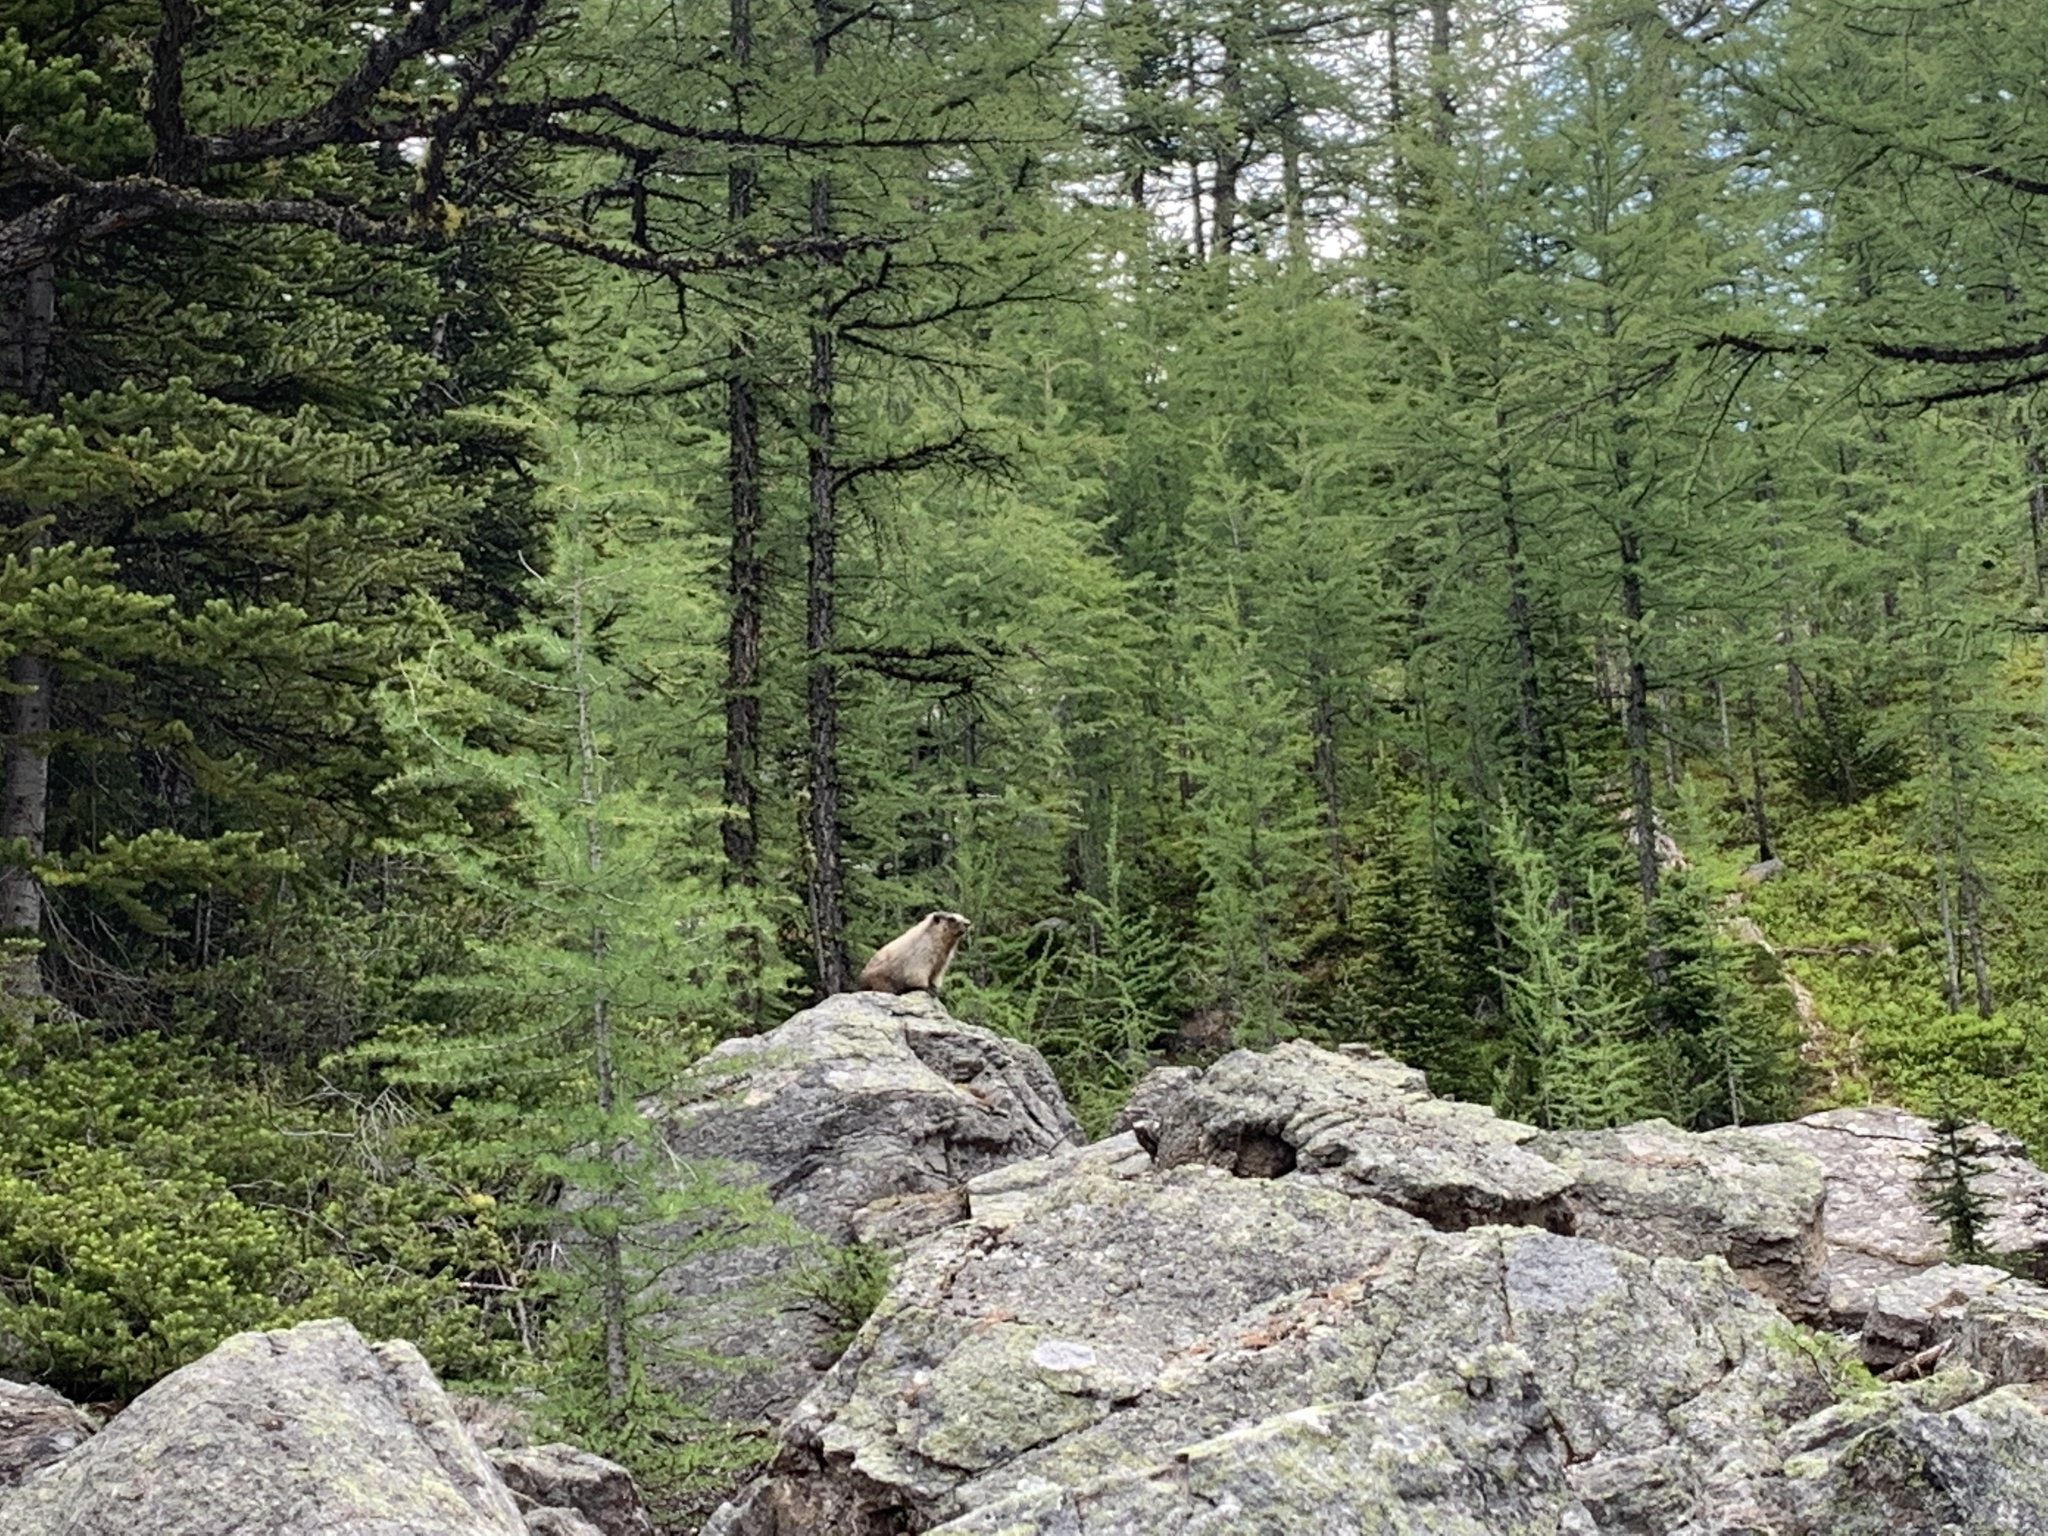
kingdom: Animalia
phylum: Chordata
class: Mammalia
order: Rodentia
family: Sciuridae
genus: Marmota
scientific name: Marmota caligata
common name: Hoary marmot
